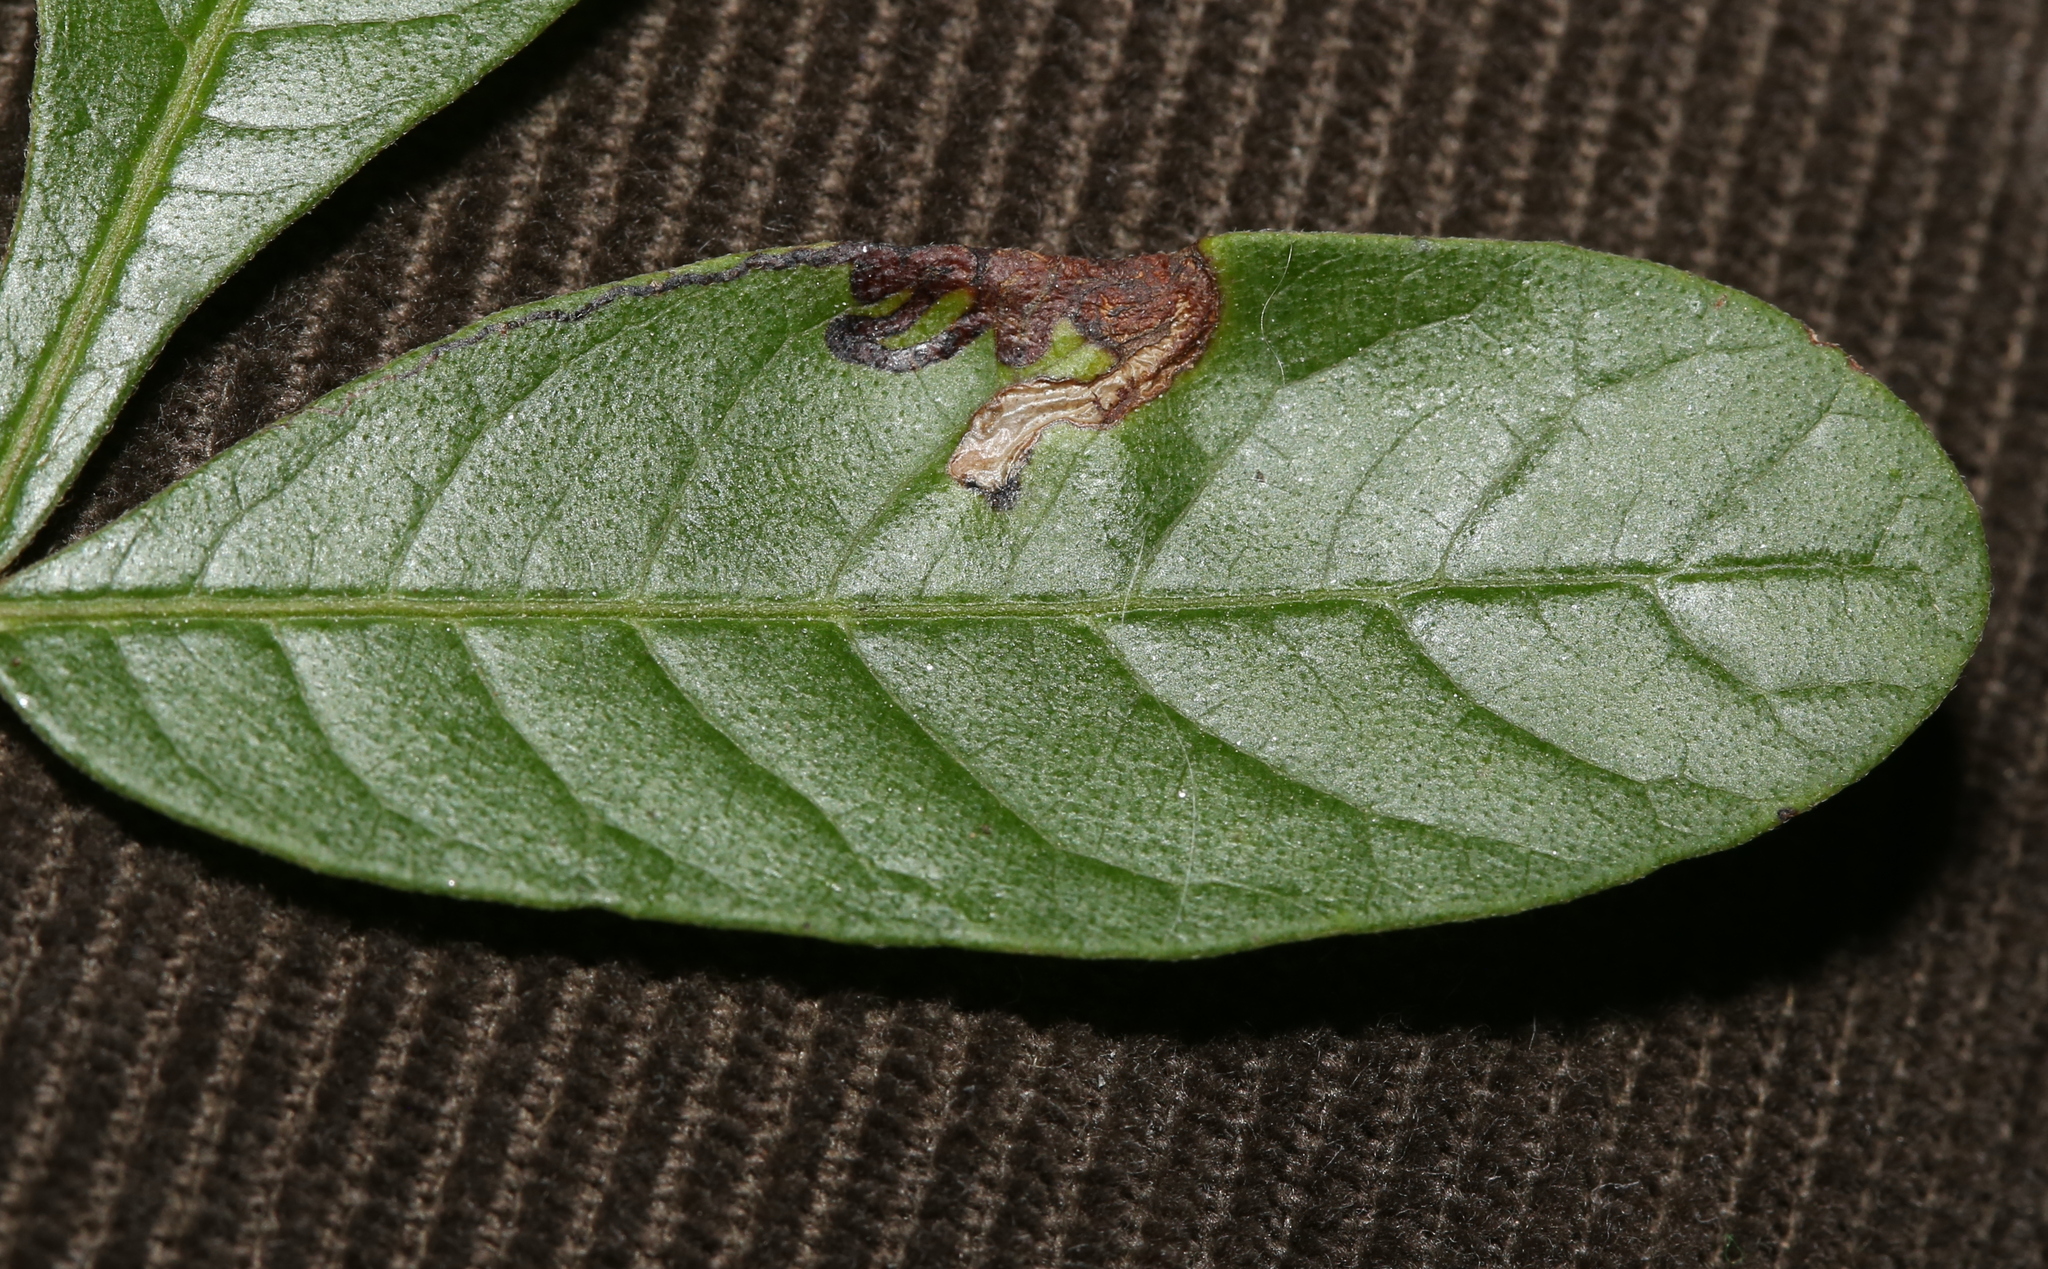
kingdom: Animalia
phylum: Arthropoda
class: Insecta
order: Lepidoptera
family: Nepticulidae
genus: Stigmella
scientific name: Stigmella intermedia
